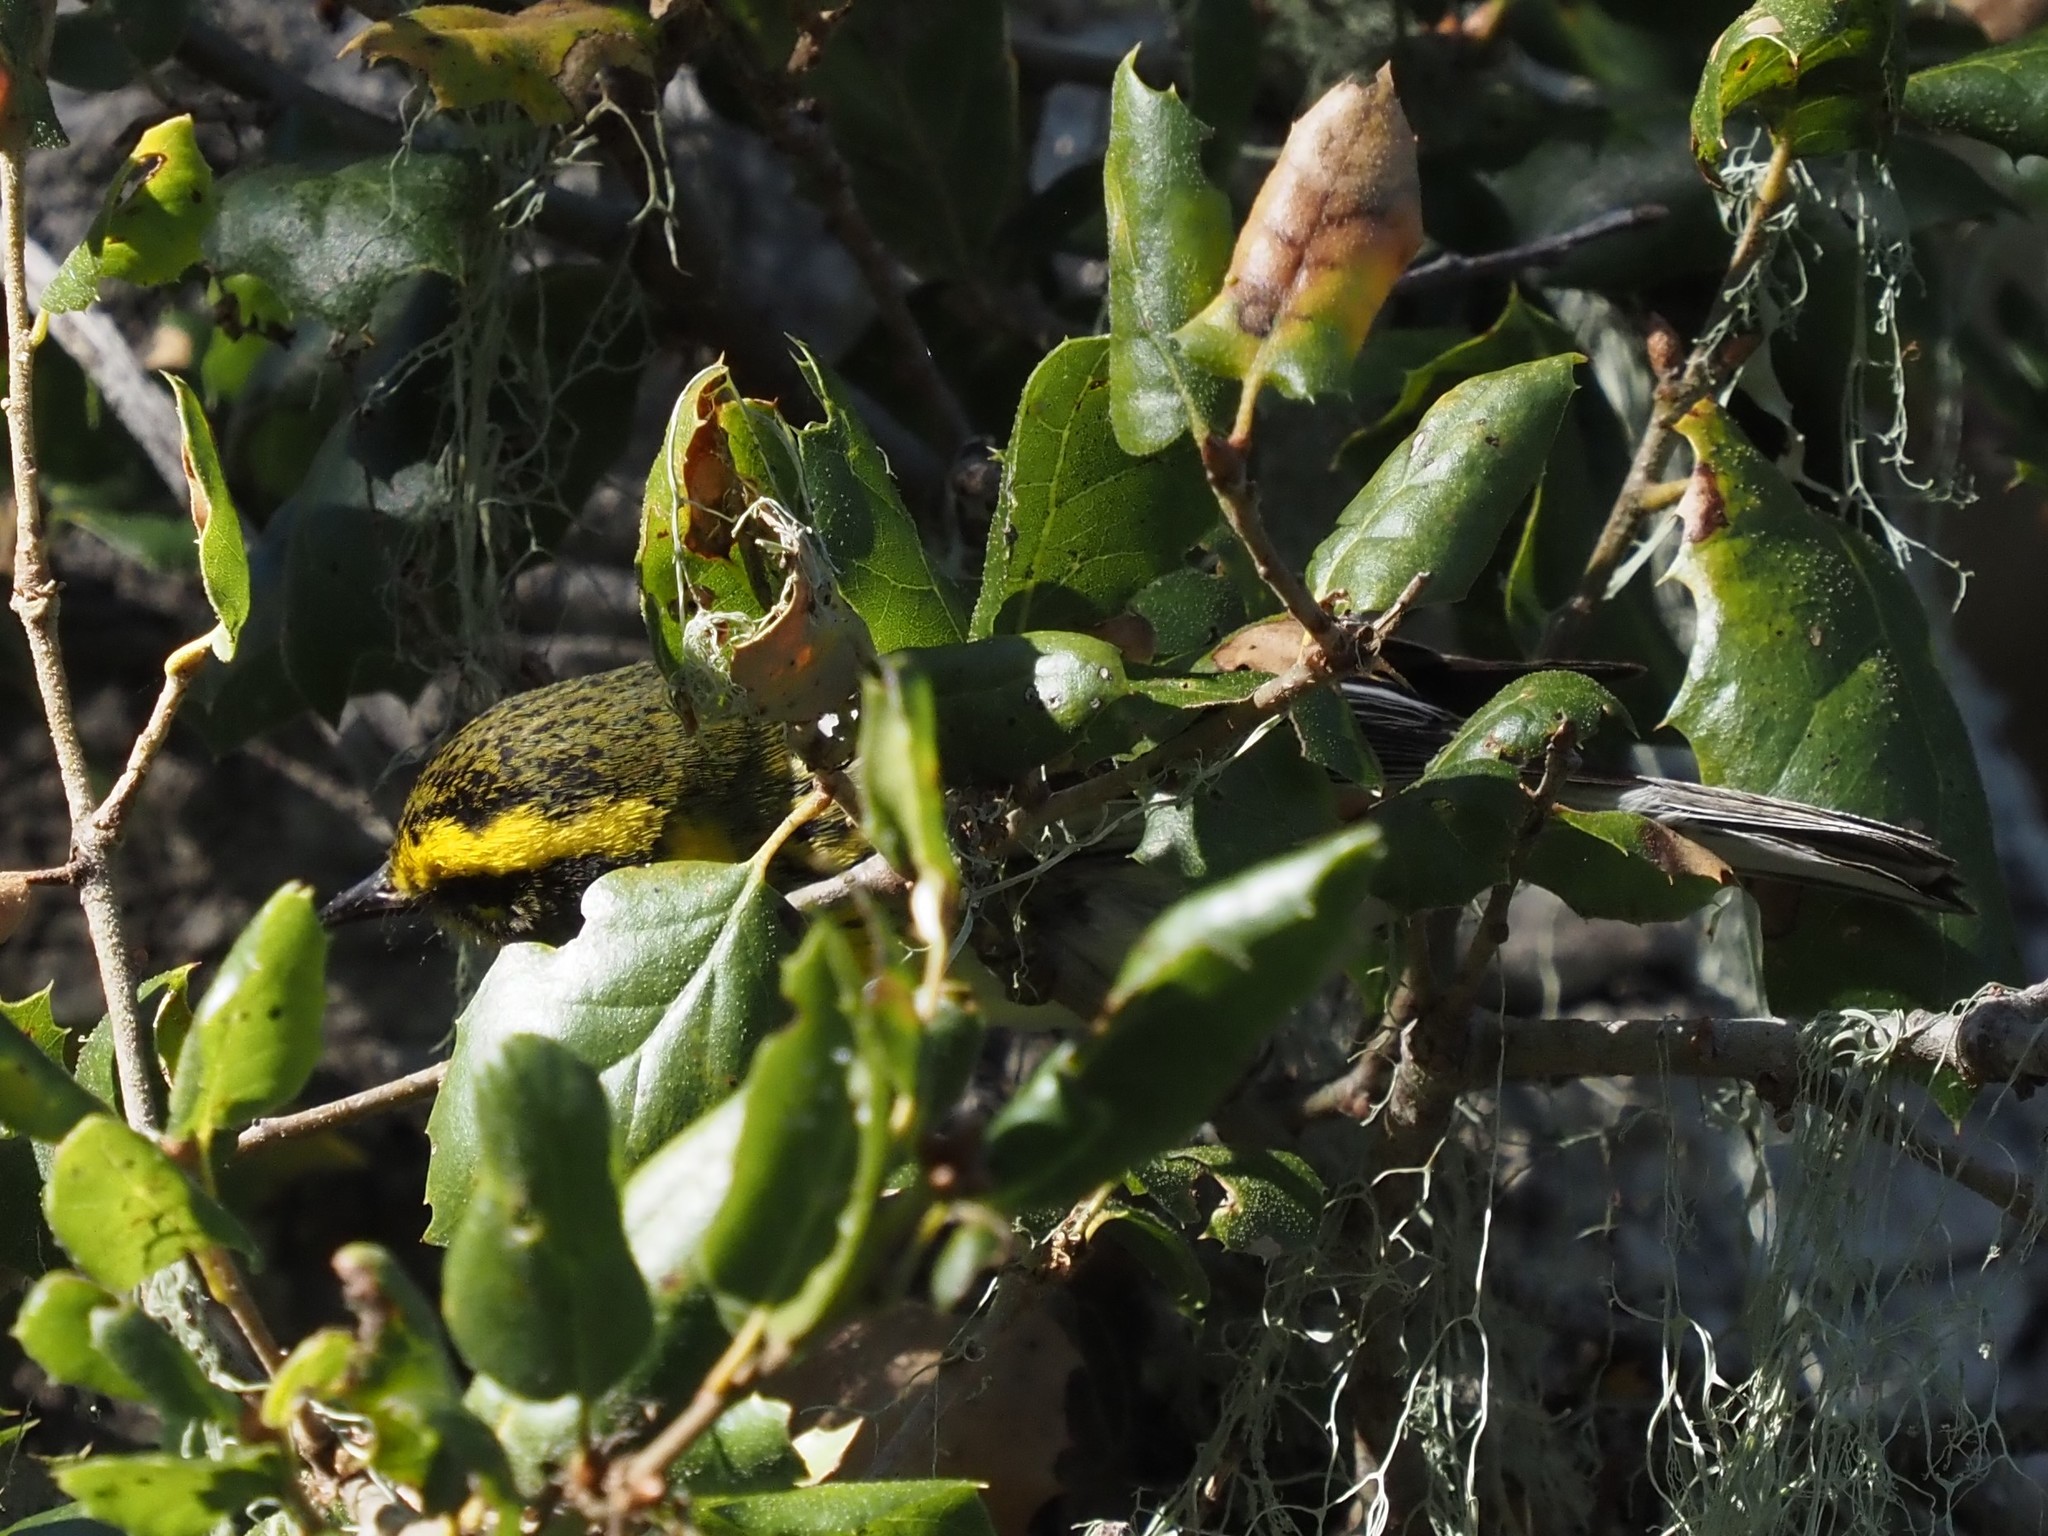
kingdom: Animalia
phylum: Chordata
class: Aves
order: Passeriformes
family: Parulidae
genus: Setophaga
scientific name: Setophaga townsendi
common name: Townsend's warbler
